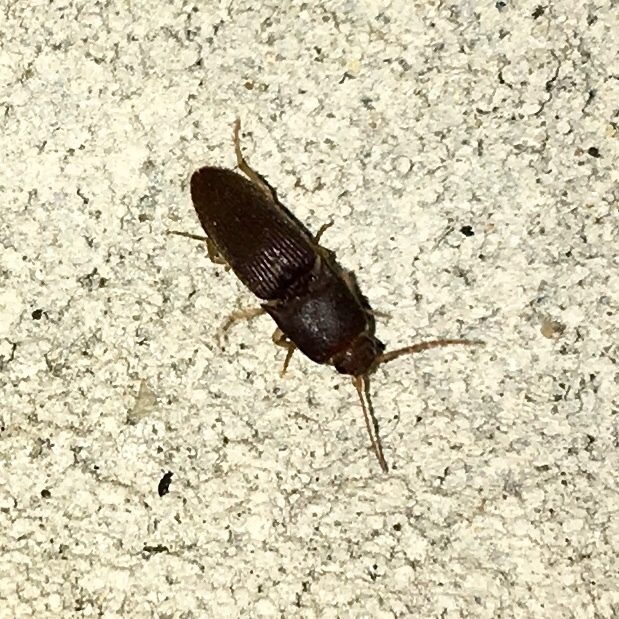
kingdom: Animalia
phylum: Arthropoda
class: Insecta
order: Coleoptera
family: Elateridae
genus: Heteroderes
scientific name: Heteroderes amplicollis
